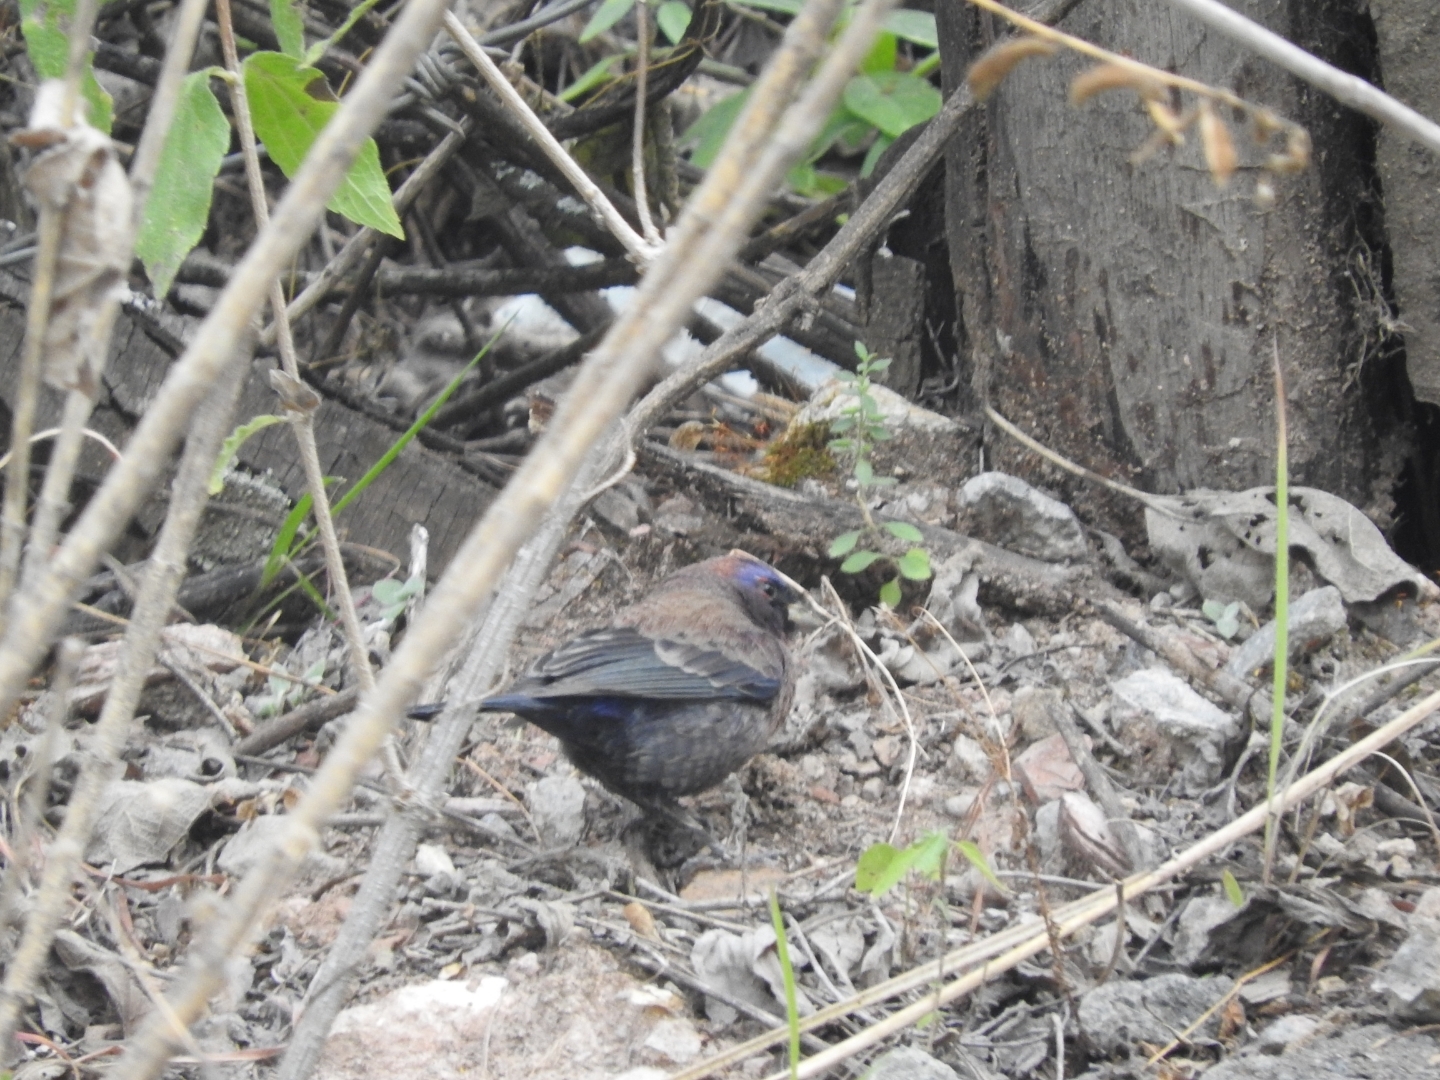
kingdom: Animalia
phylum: Chordata
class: Aves
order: Passeriformes
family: Cardinalidae
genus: Passerina
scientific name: Passerina versicolor
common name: Varied bunting
